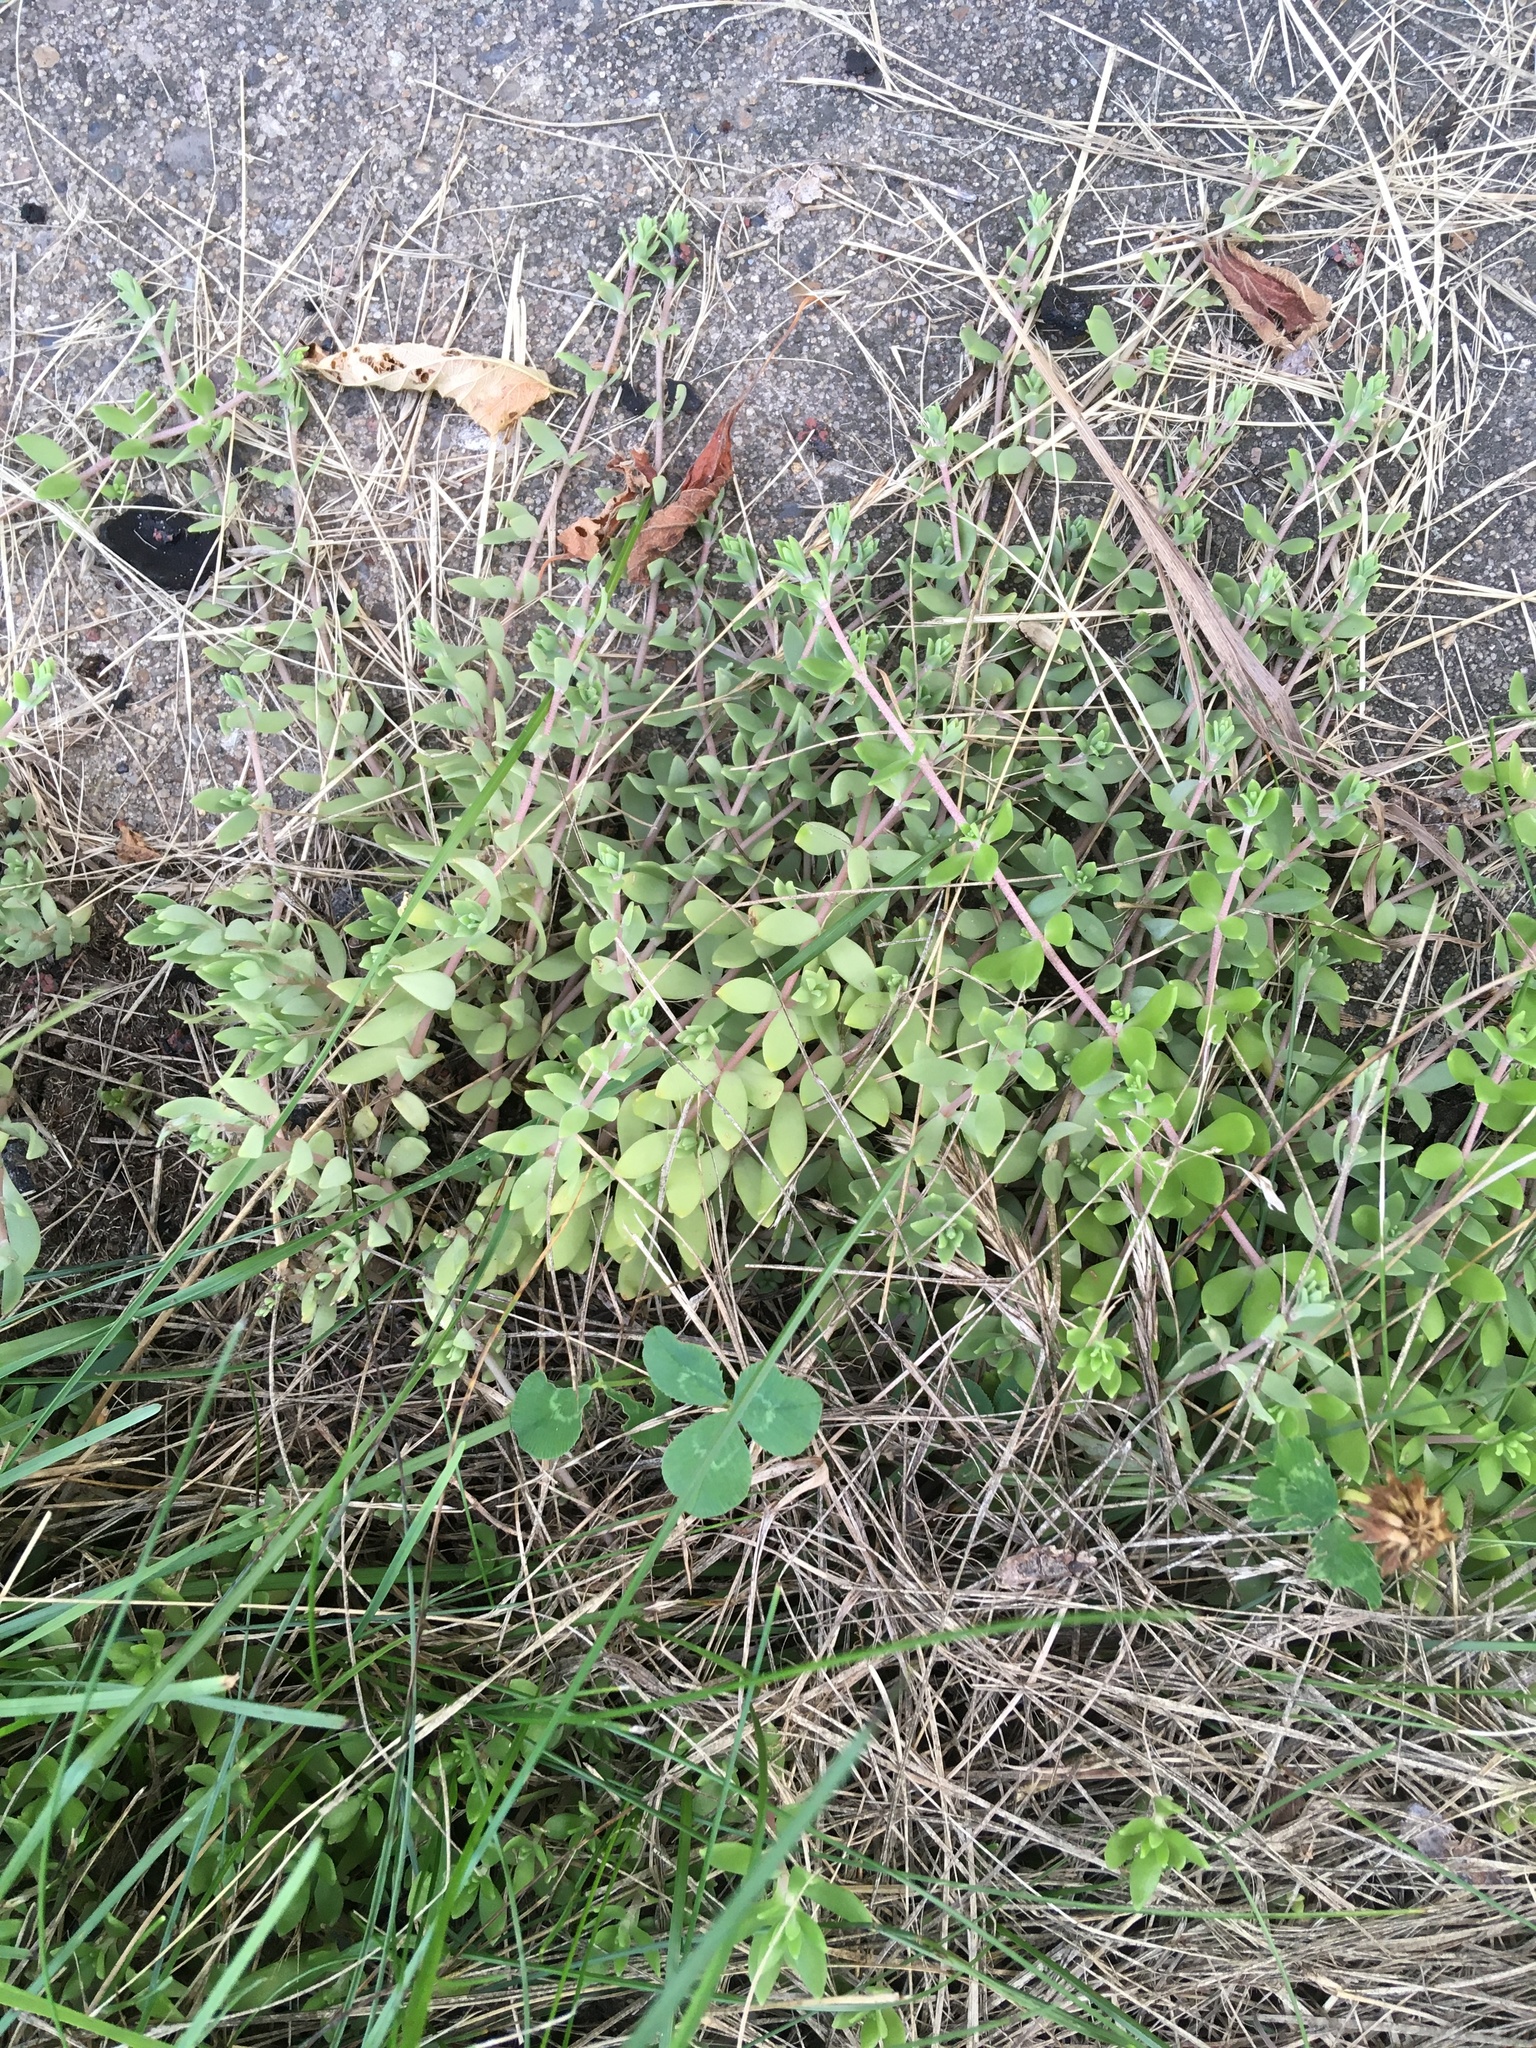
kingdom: Plantae
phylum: Tracheophyta
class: Magnoliopsida
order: Saxifragales
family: Crassulaceae
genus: Sedum
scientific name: Sedum sarmentosum
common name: Stringy stonecrop
